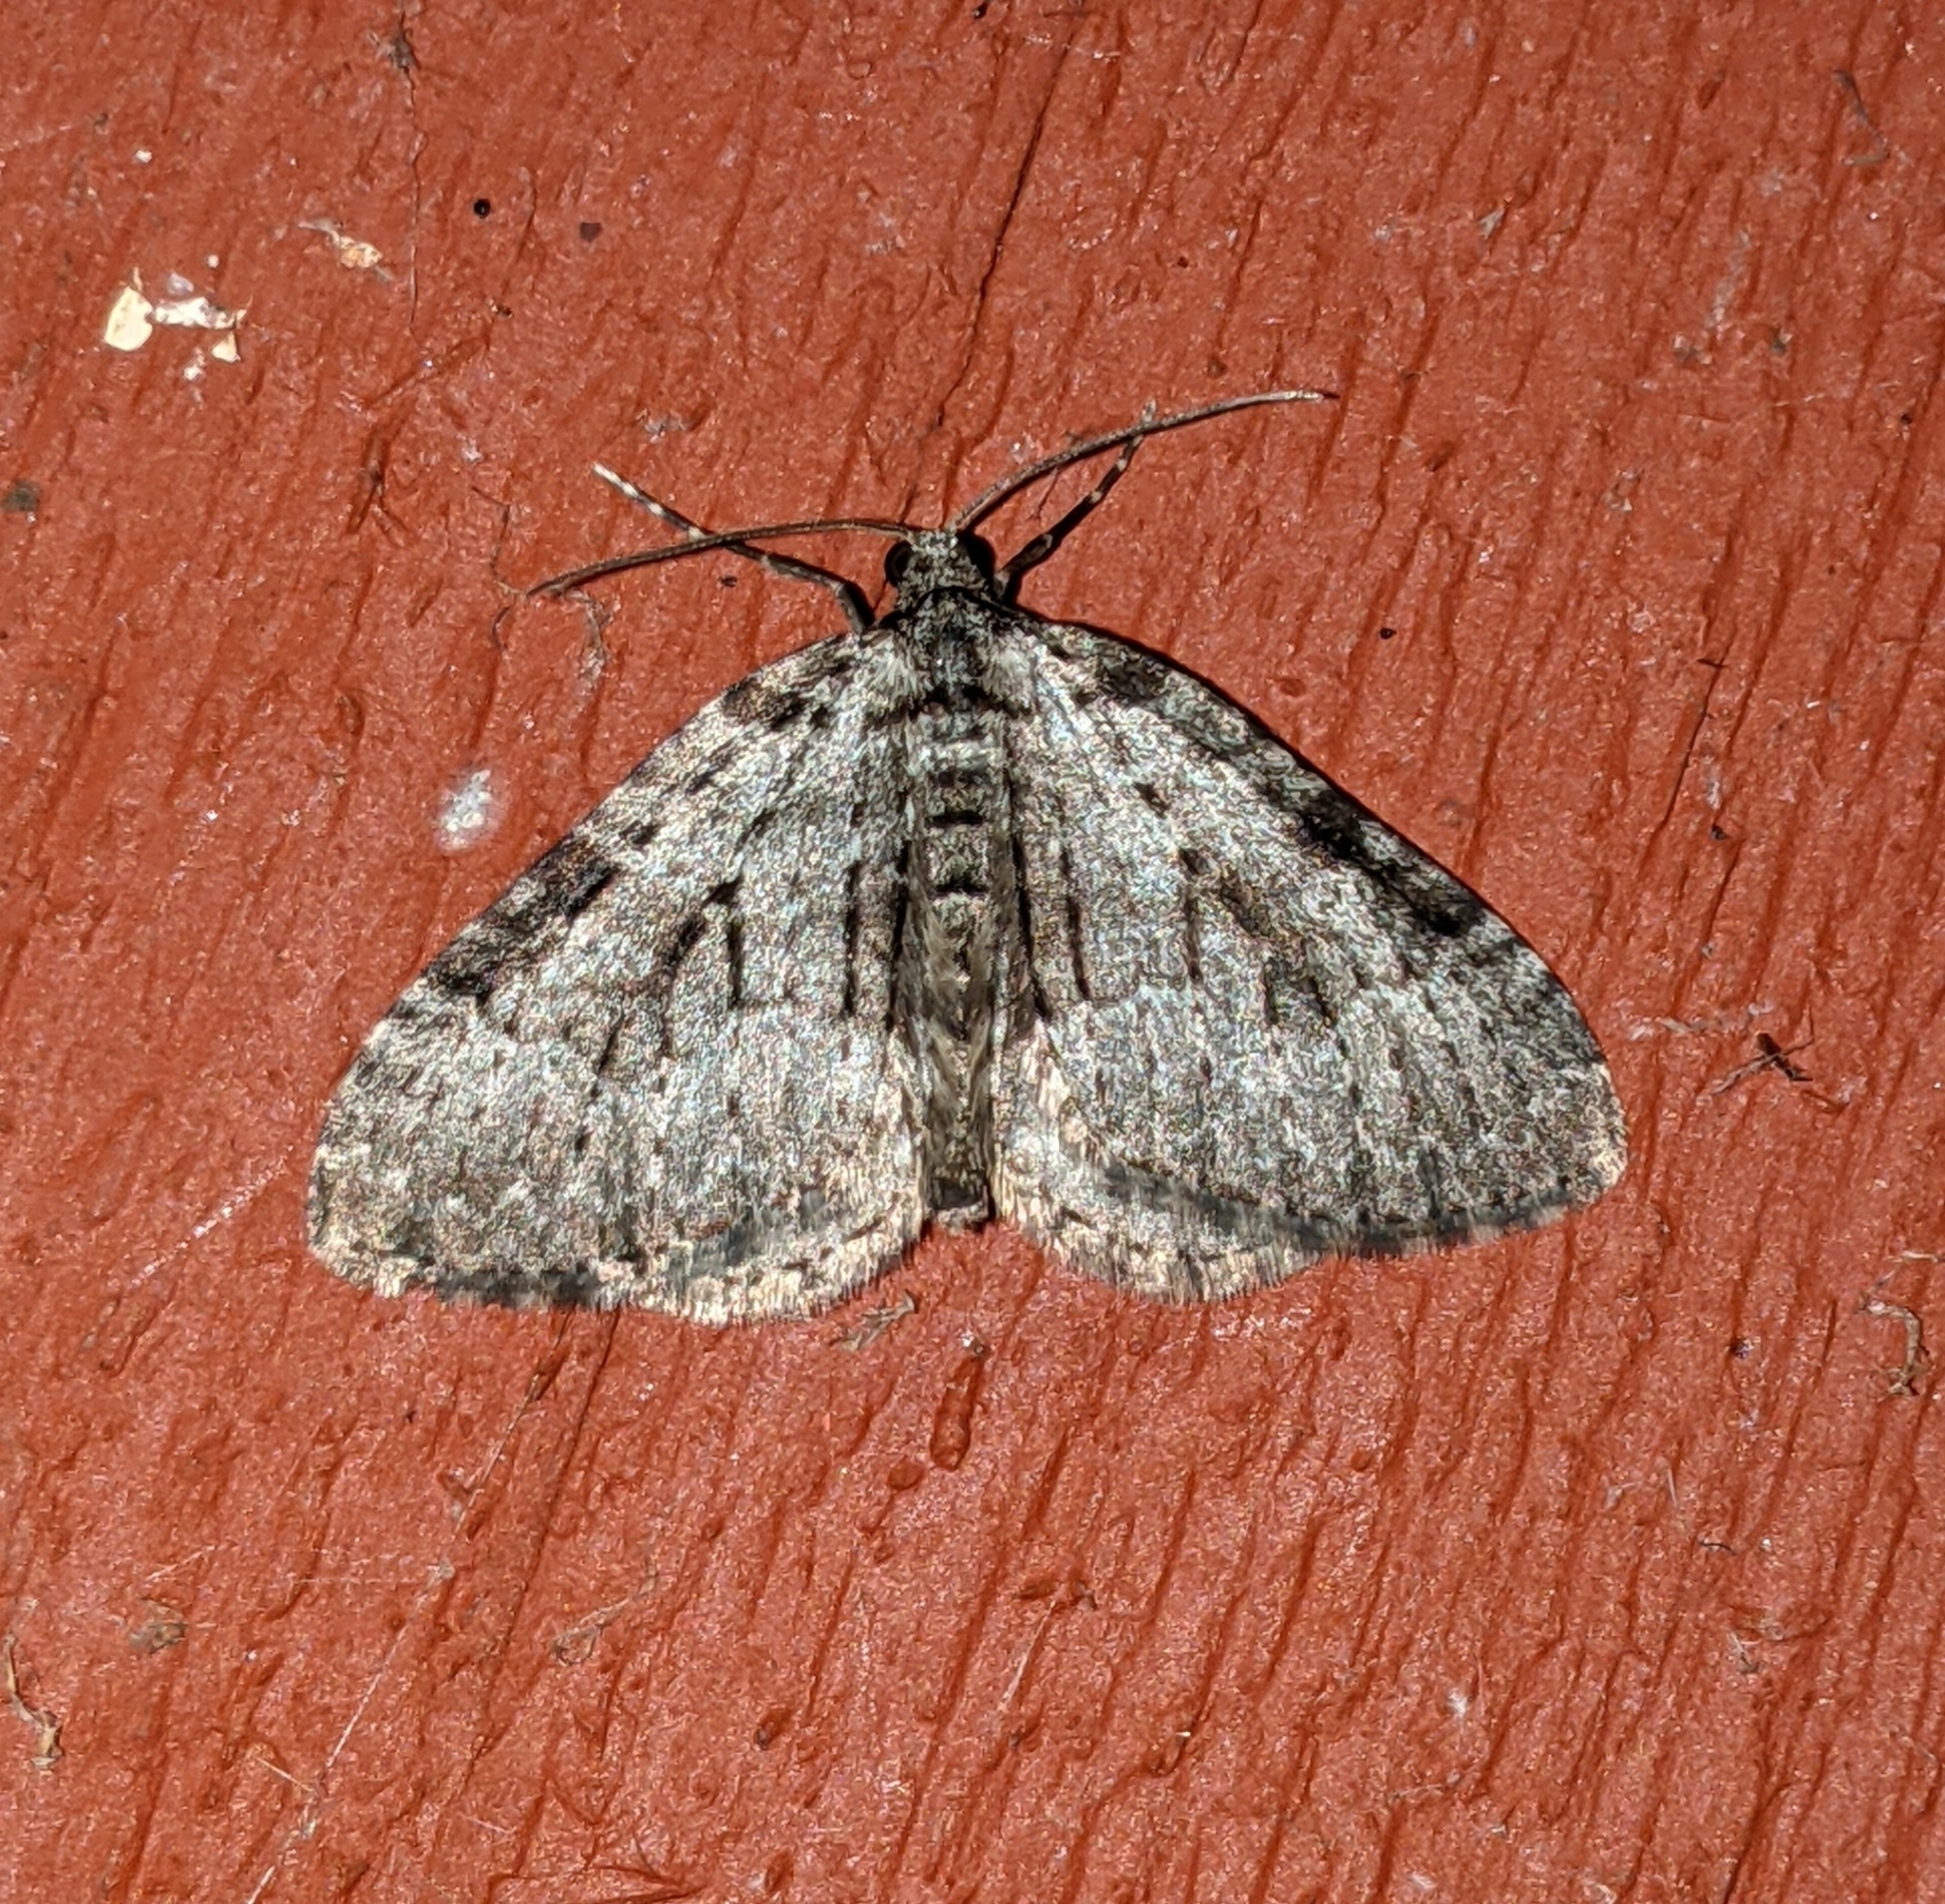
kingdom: Animalia
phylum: Arthropoda
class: Insecta
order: Lepidoptera
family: Geometridae
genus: Perizoma
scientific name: Perizoma curvilinea
